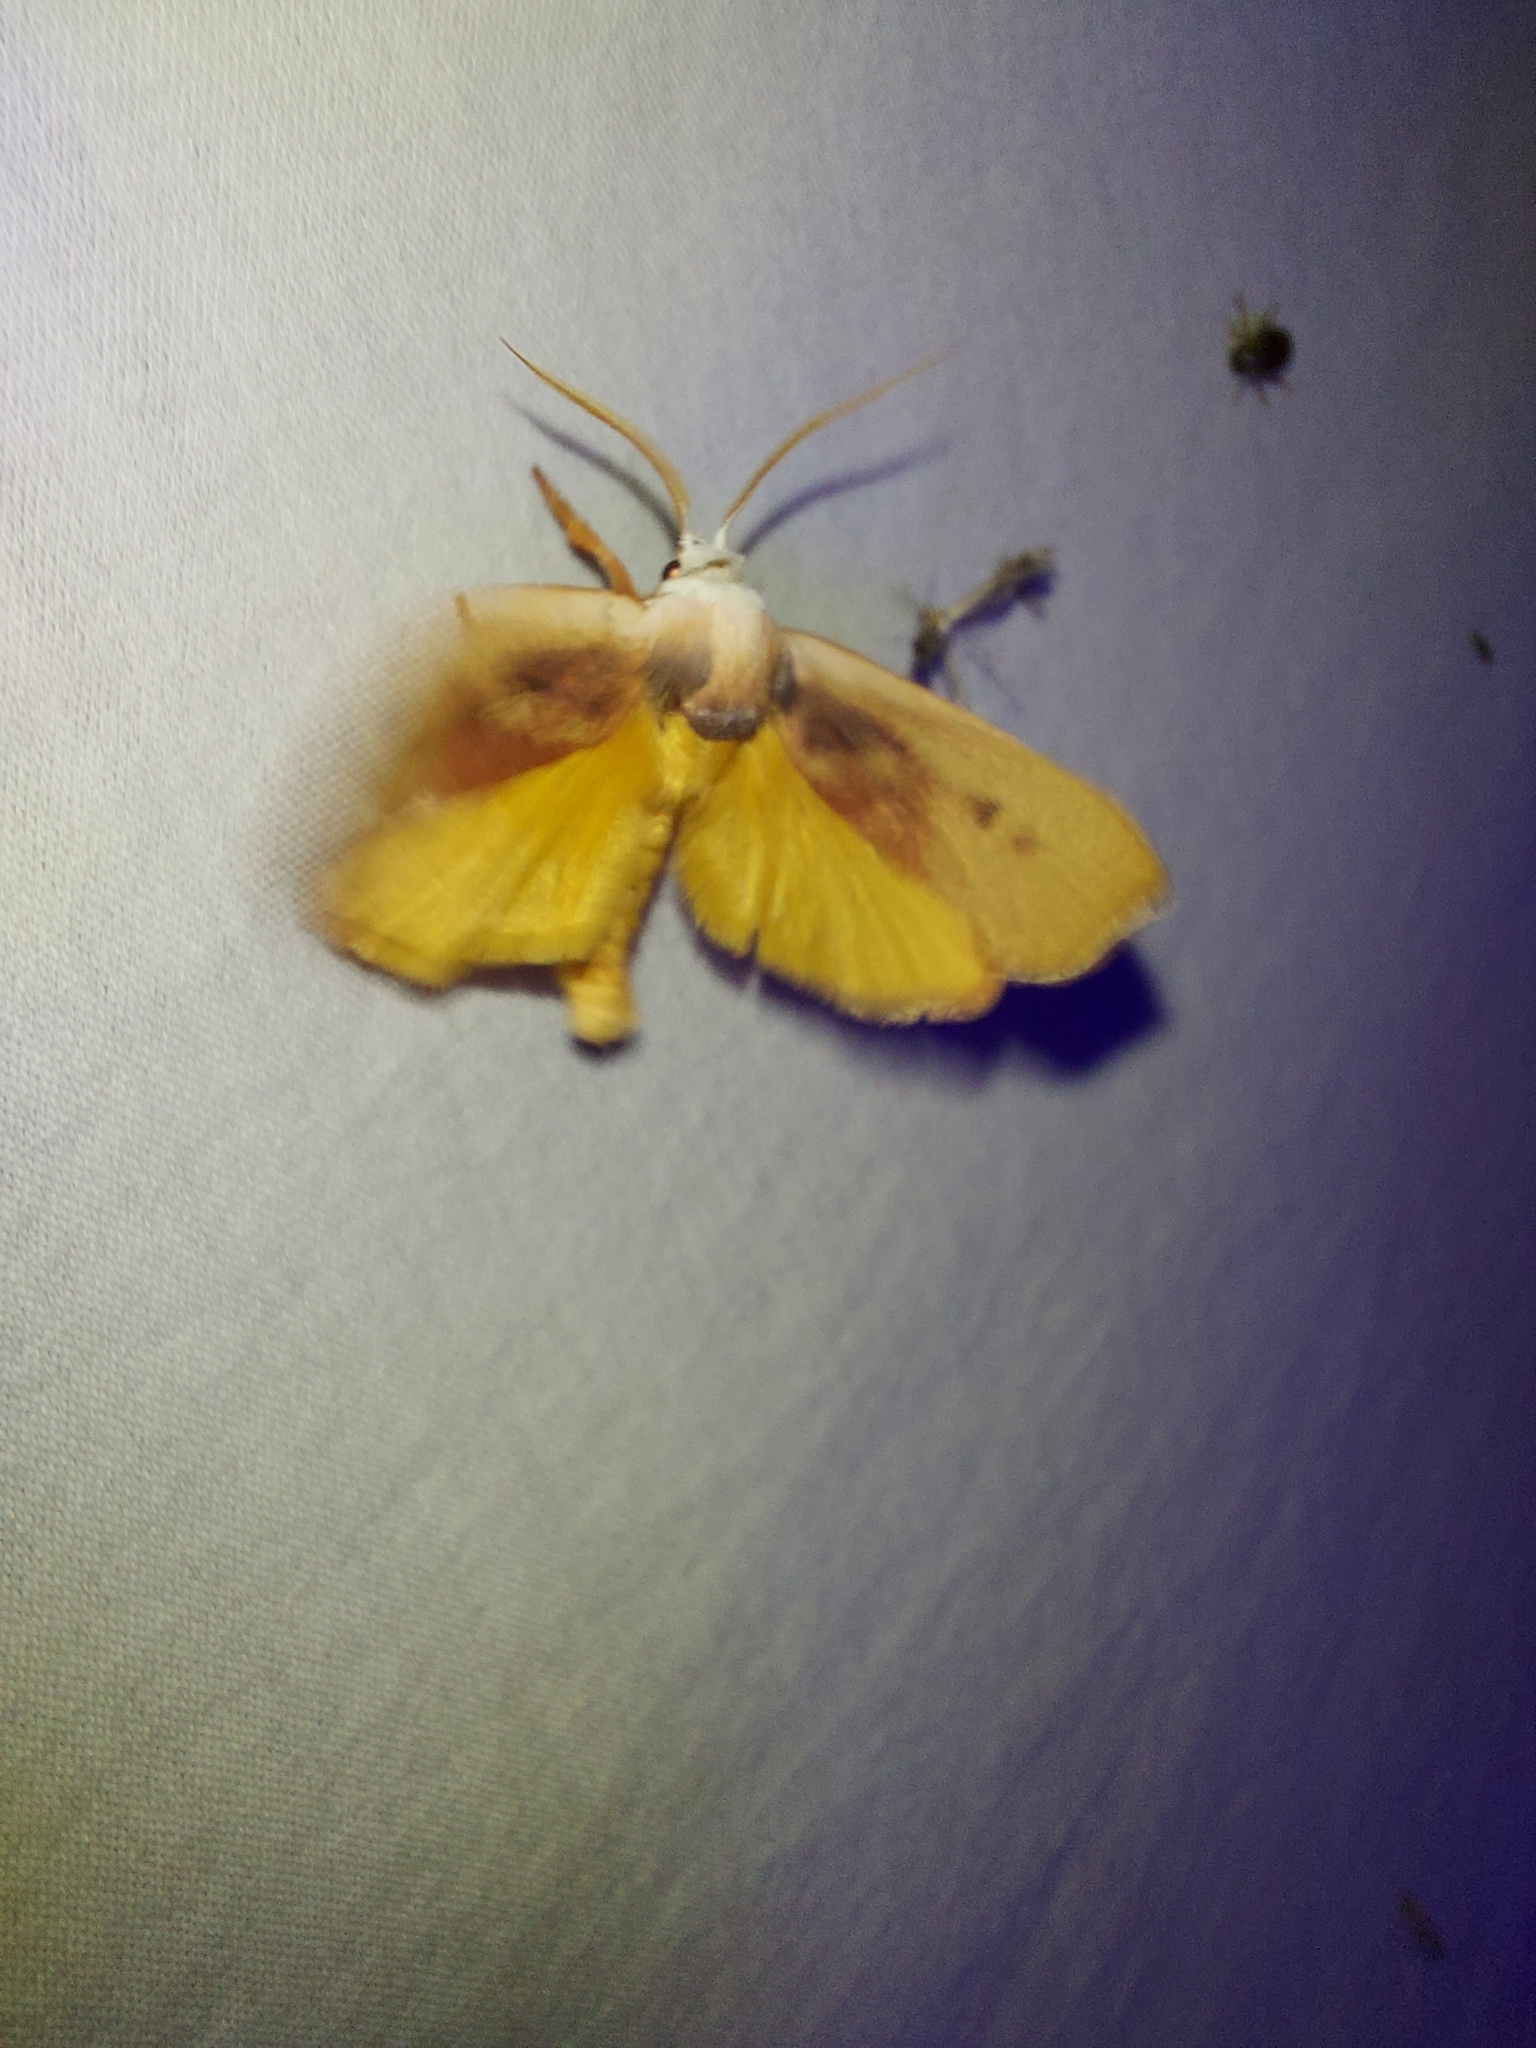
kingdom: Animalia
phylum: Arthropoda
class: Insecta
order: Lepidoptera
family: Xyloryctidae
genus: Cryptophasa
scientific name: Cryptophasa rubescens
